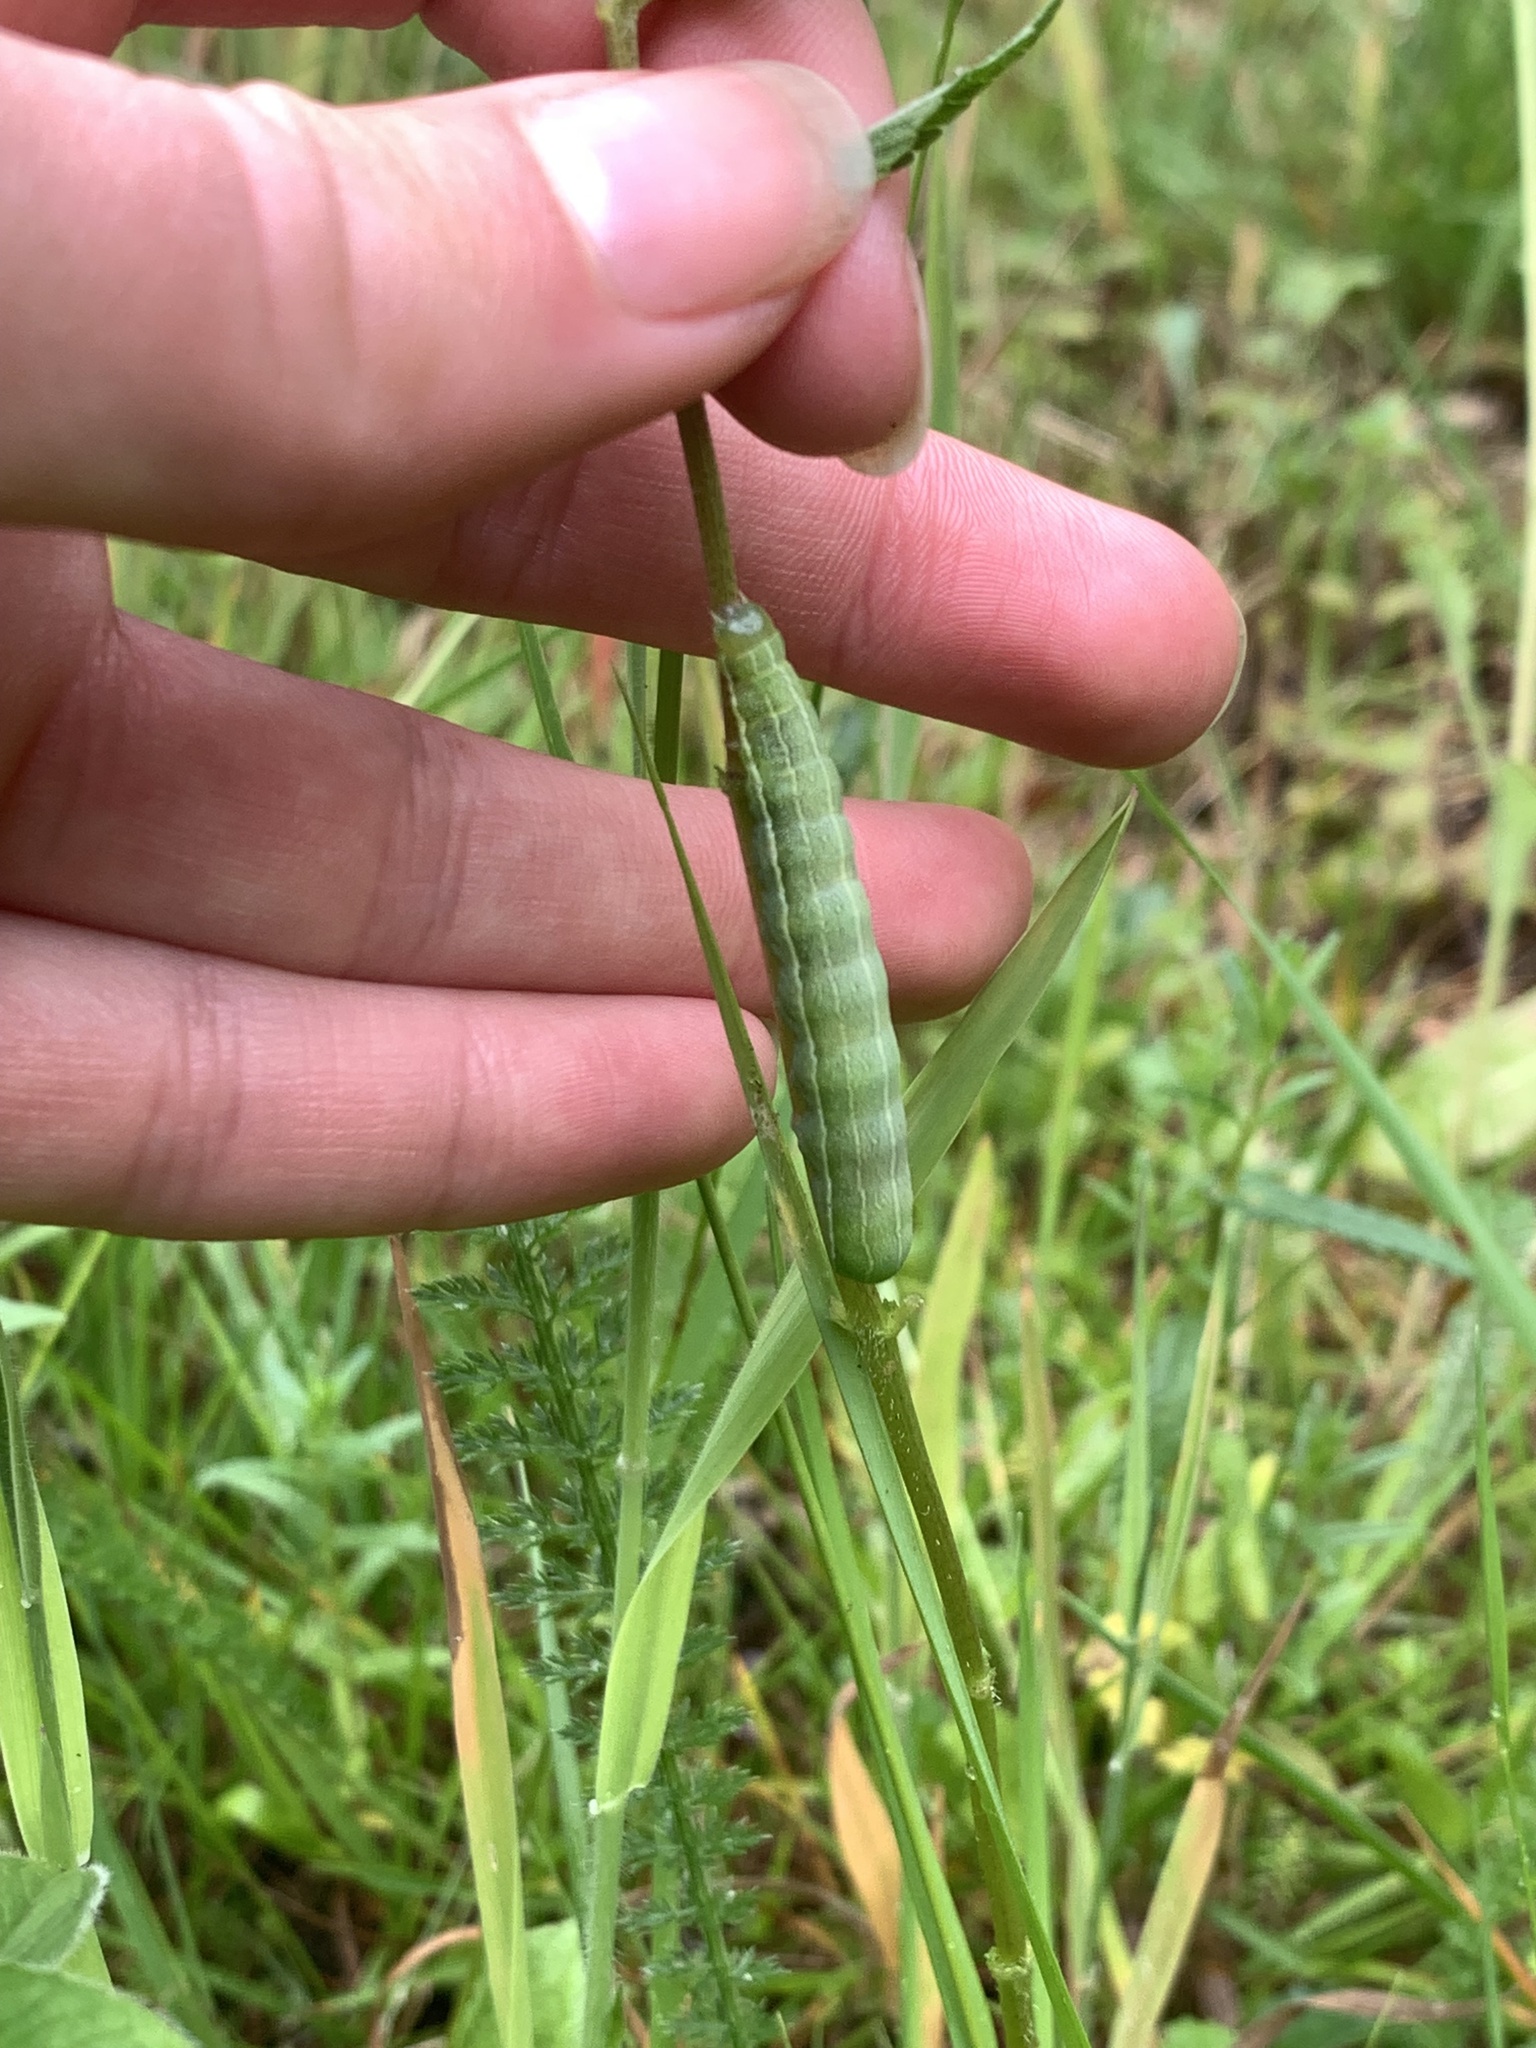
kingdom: Animalia
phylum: Arthropoda
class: Insecta
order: Lepidoptera
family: Noctuidae
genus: Orthosia
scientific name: Orthosia gothica
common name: Hebrew character
